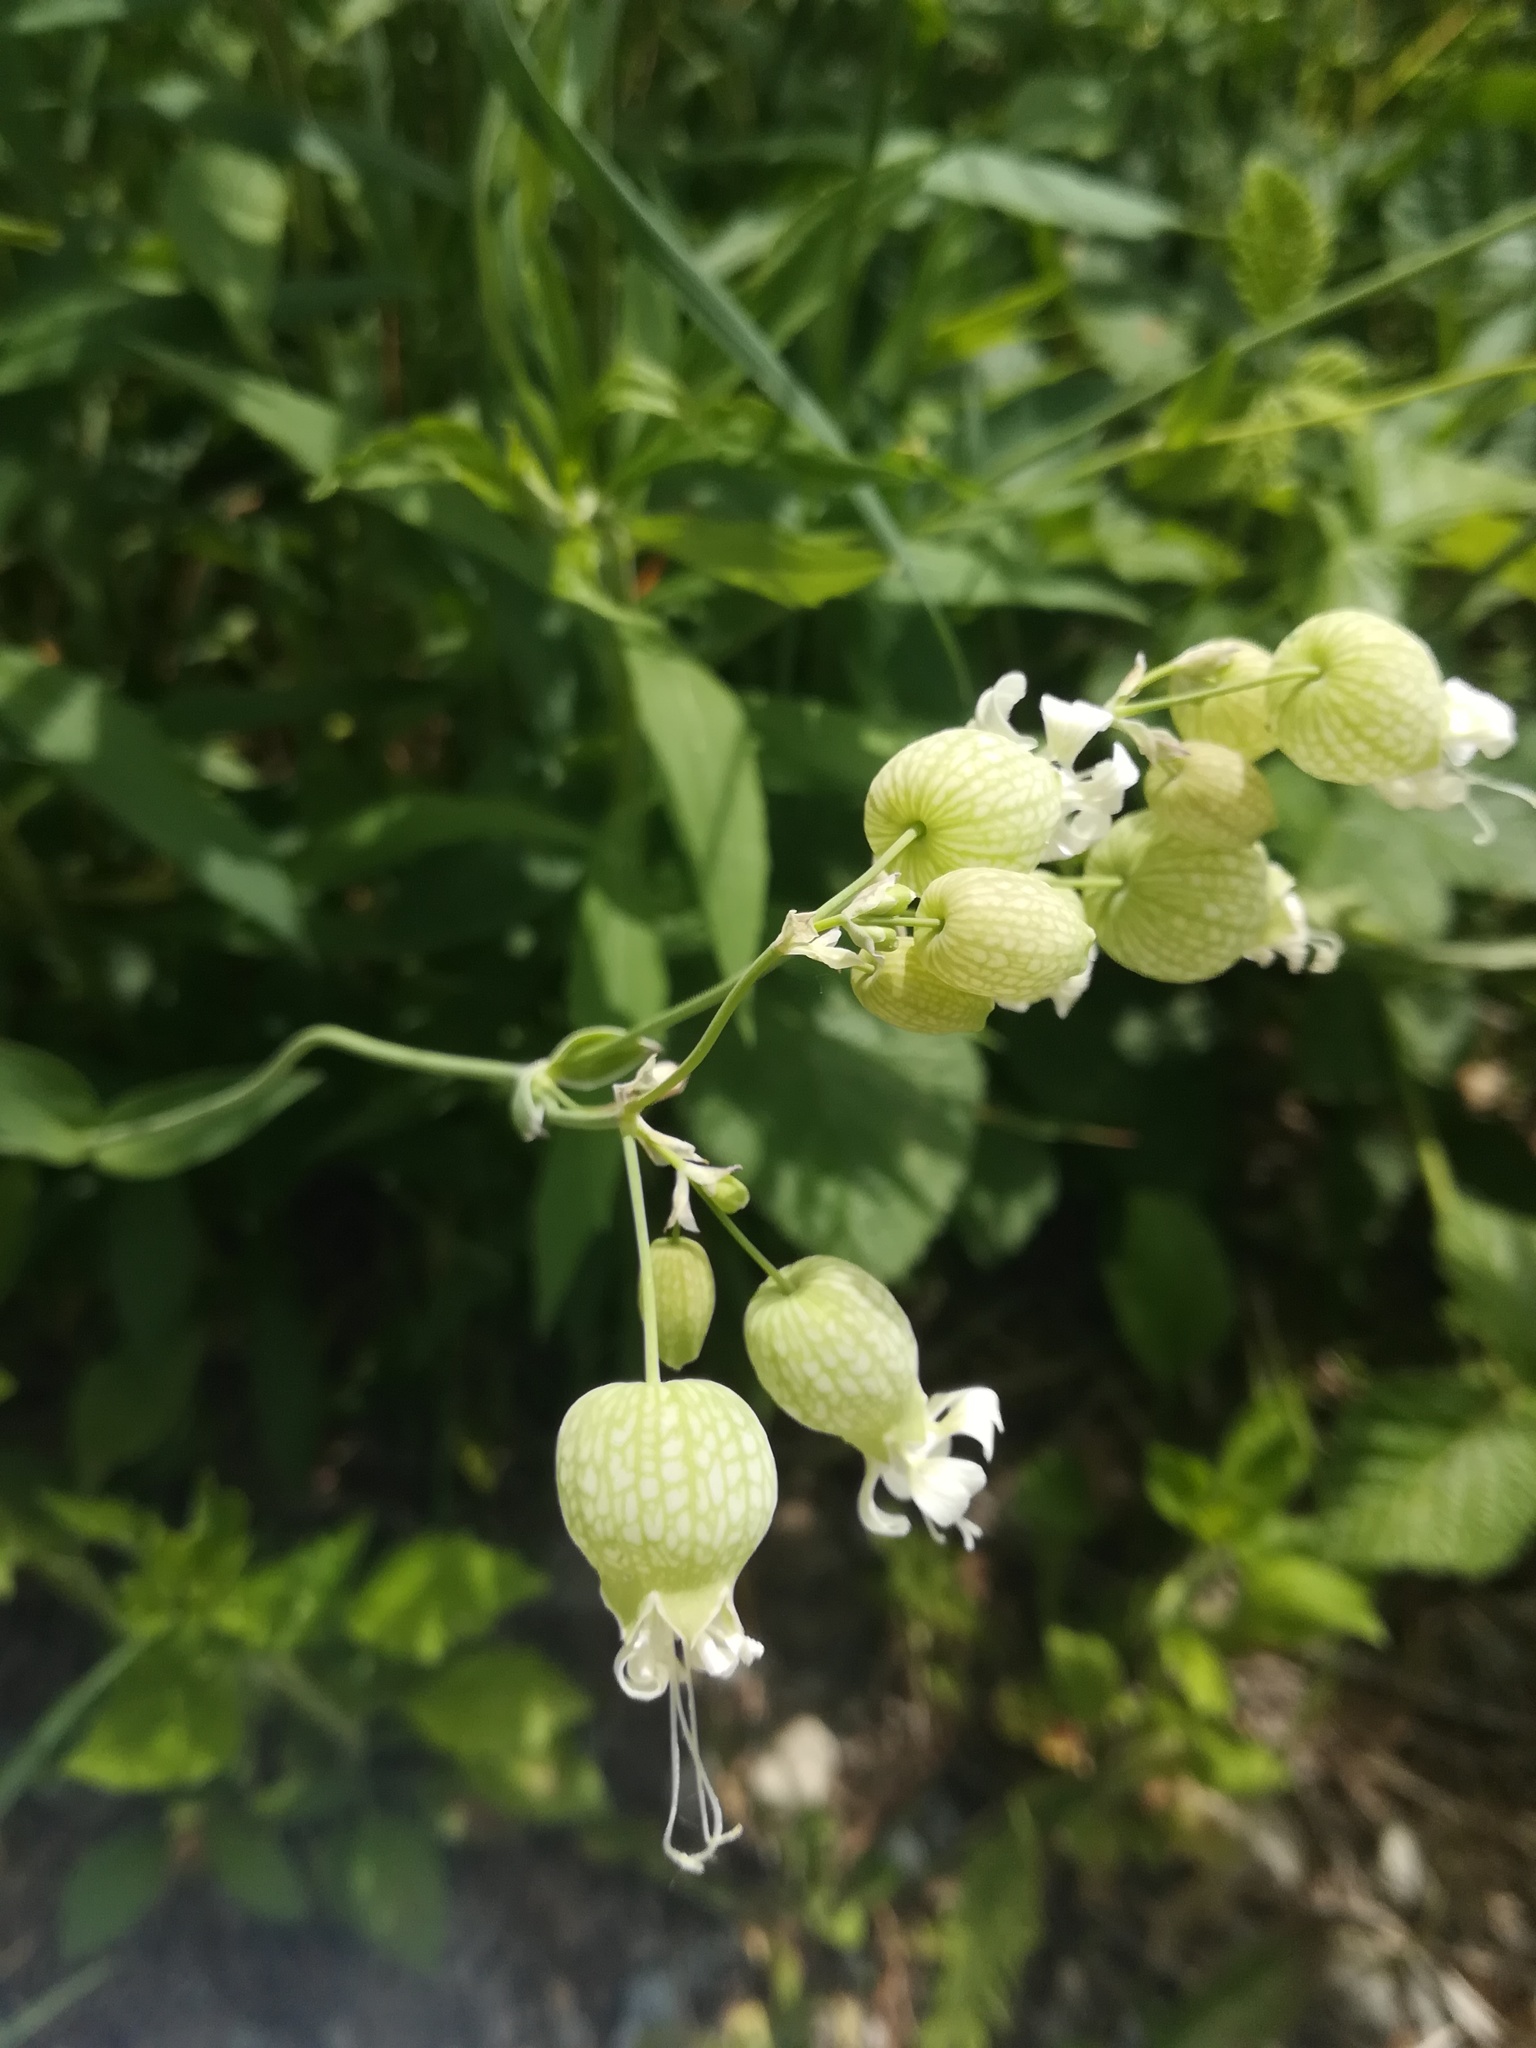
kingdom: Plantae
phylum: Tracheophyta
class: Magnoliopsida
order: Caryophyllales
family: Caryophyllaceae
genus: Silene
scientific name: Silene vulgaris
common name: Bladder campion
